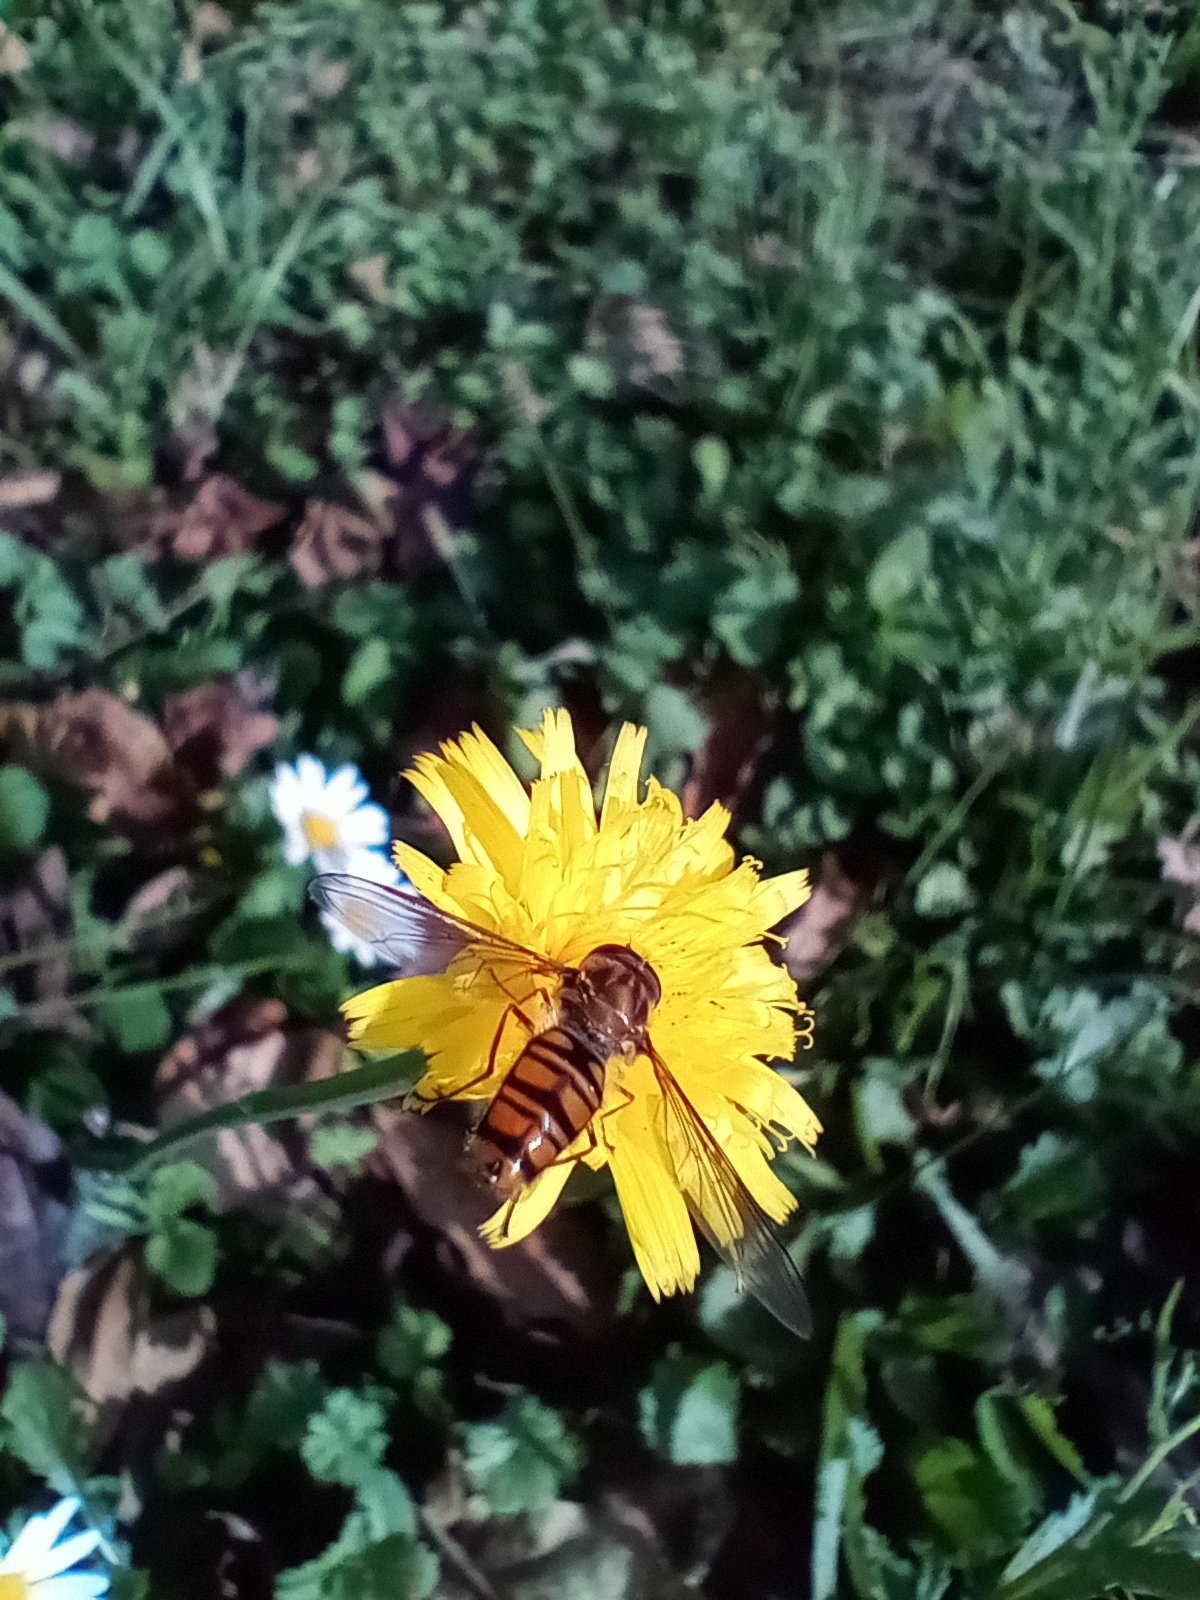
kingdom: Animalia
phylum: Arthropoda
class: Insecta
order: Diptera
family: Syrphidae
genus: Episyrphus
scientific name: Episyrphus balteatus
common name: Marmalade hoverfly
